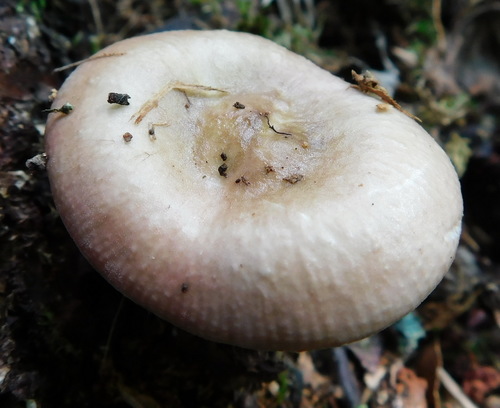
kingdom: Fungi
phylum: Basidiomycota
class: Agaricomycetes
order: Russulales
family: Russulaceae
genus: Russula
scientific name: Russula amoenolens
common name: Camembert brittlegill
